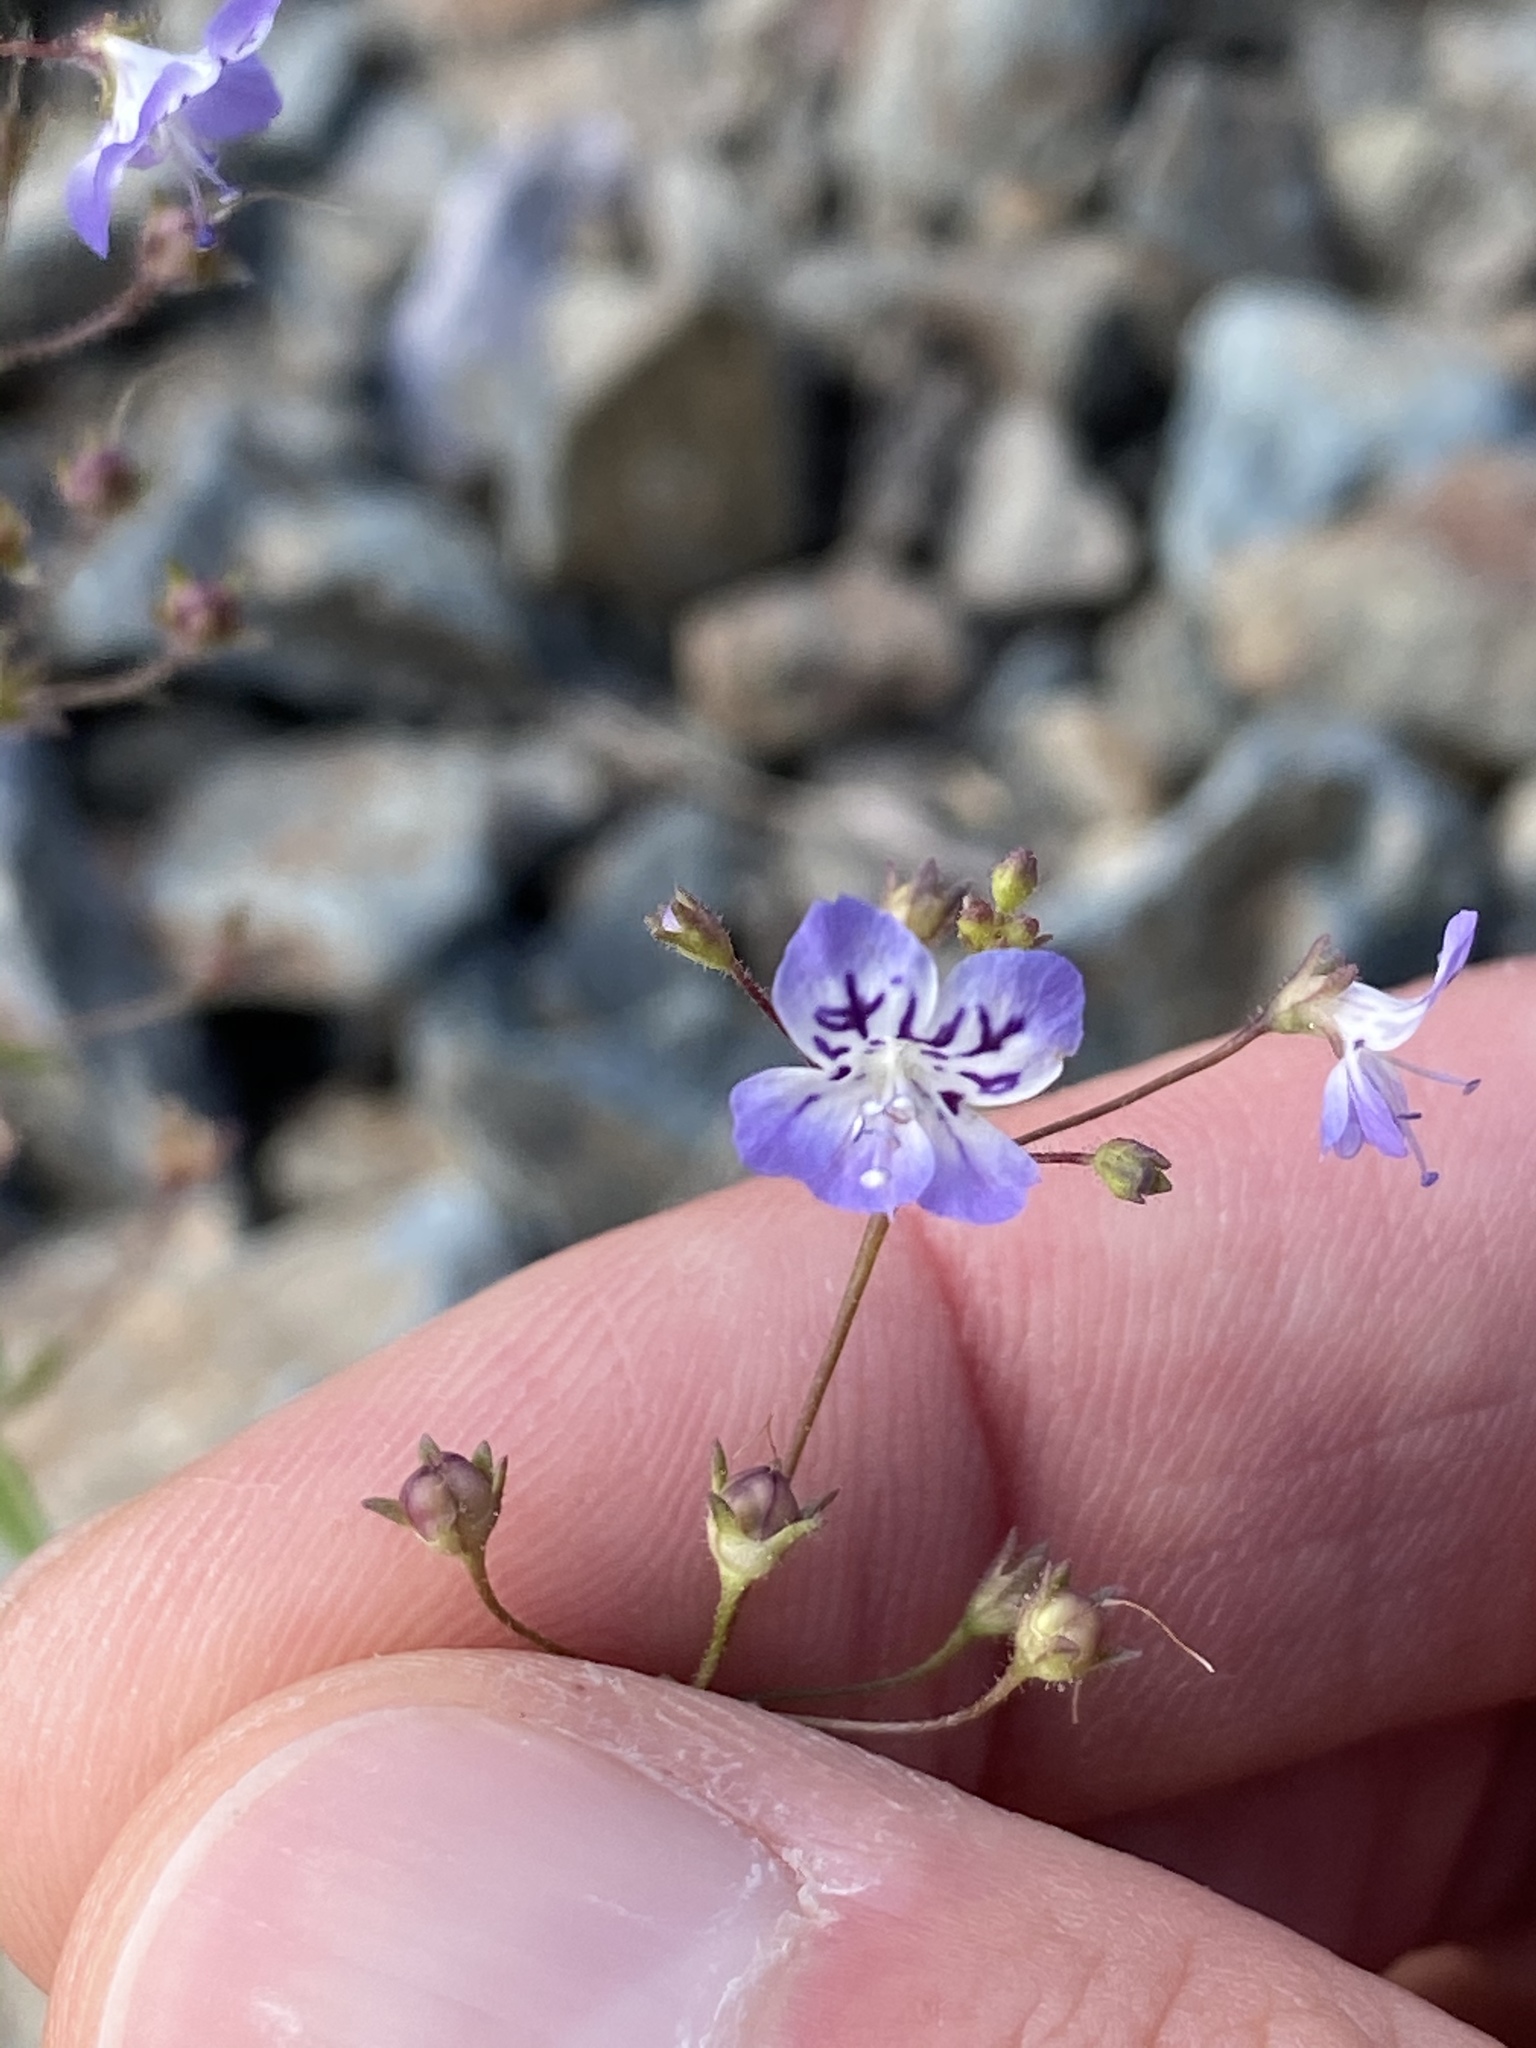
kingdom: Plantae
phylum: Tracheophyta
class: Magnoliopsida
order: Lamiales
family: Plantaginaceae
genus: Tonella
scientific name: Tonella floribunda
